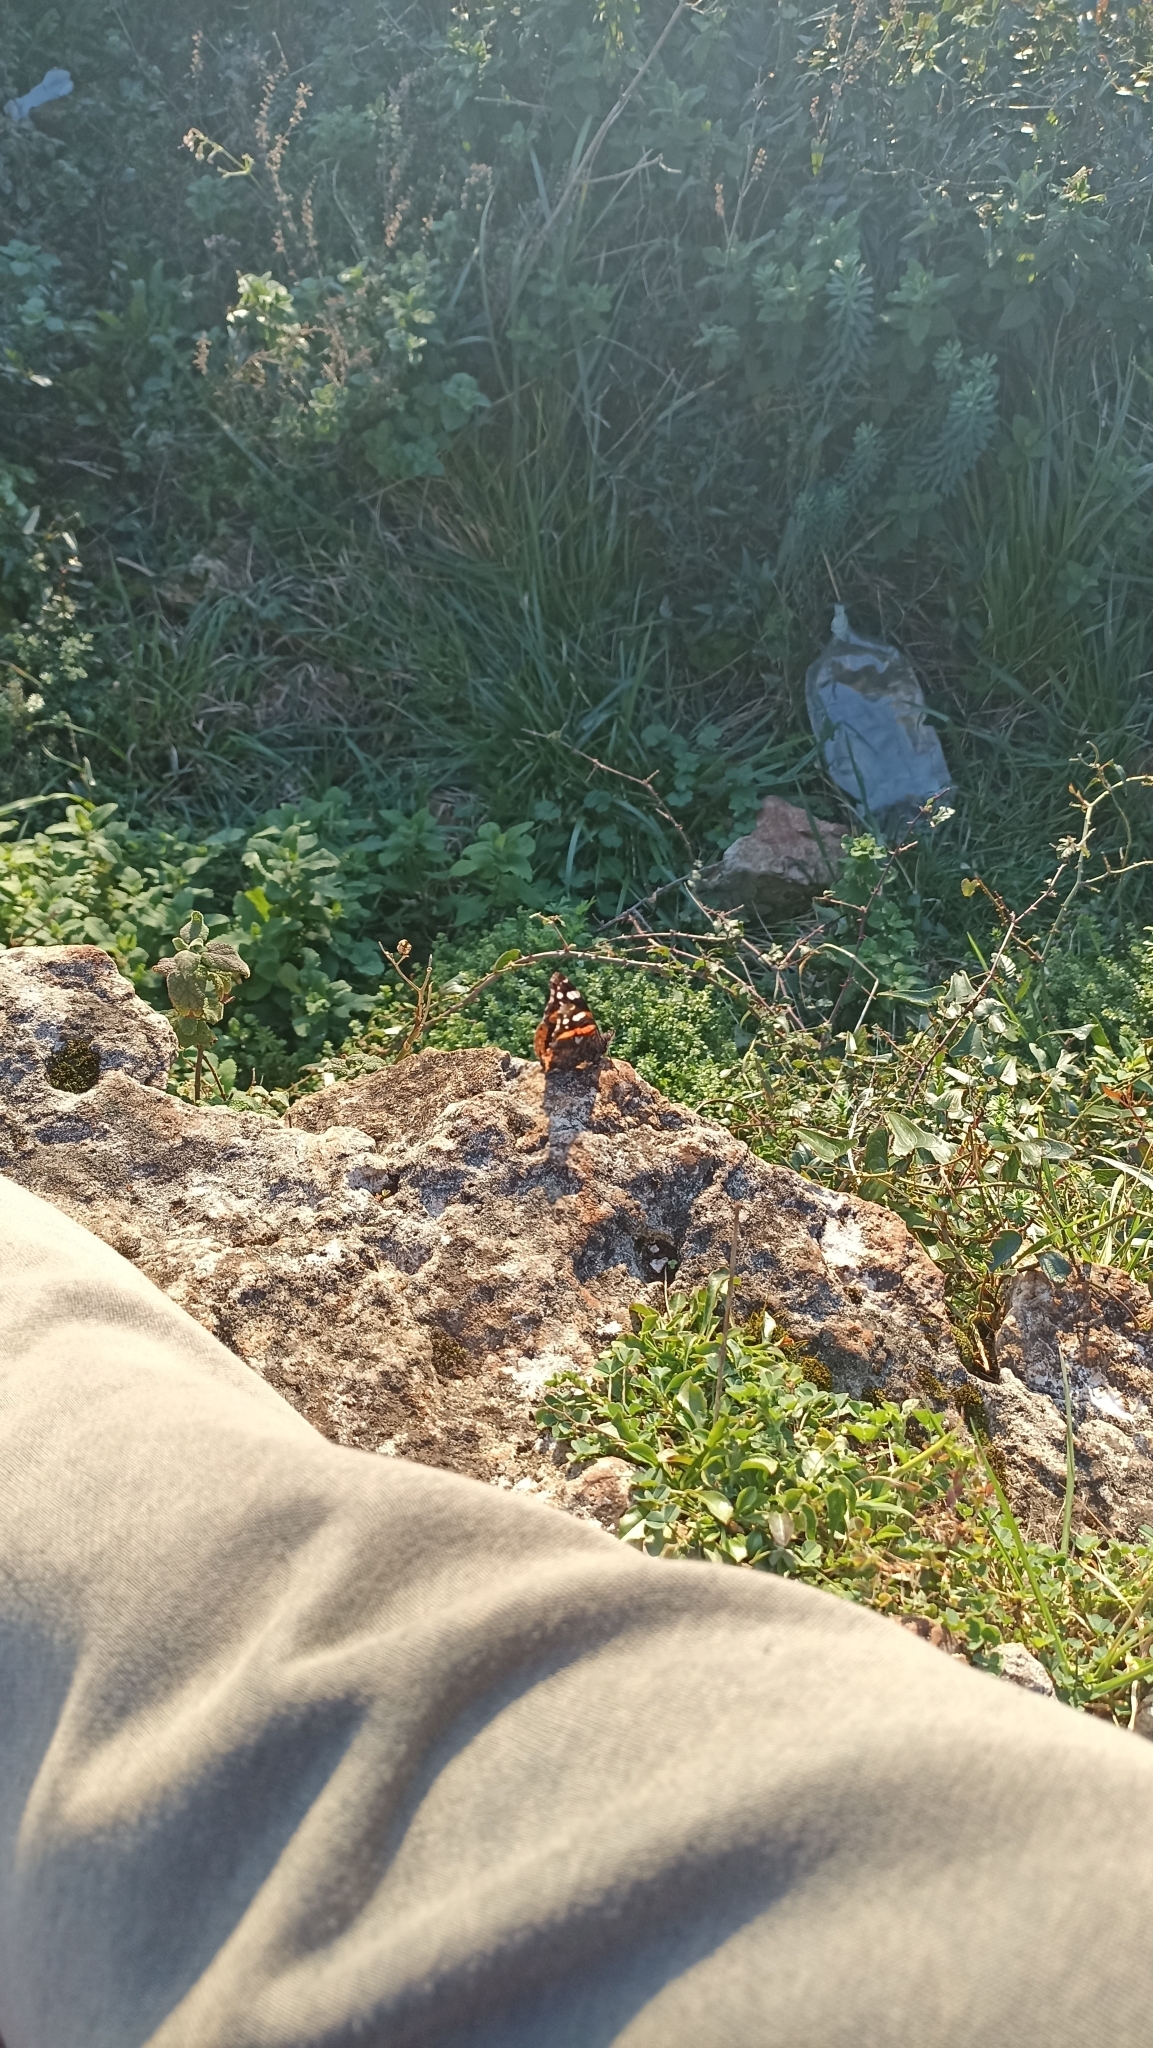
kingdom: Animalia
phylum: Arthropoda
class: Insecta
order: Lepidoptera
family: Nymphalidae
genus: Vanessa
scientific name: Vanessa atalanta
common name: Red admiral
